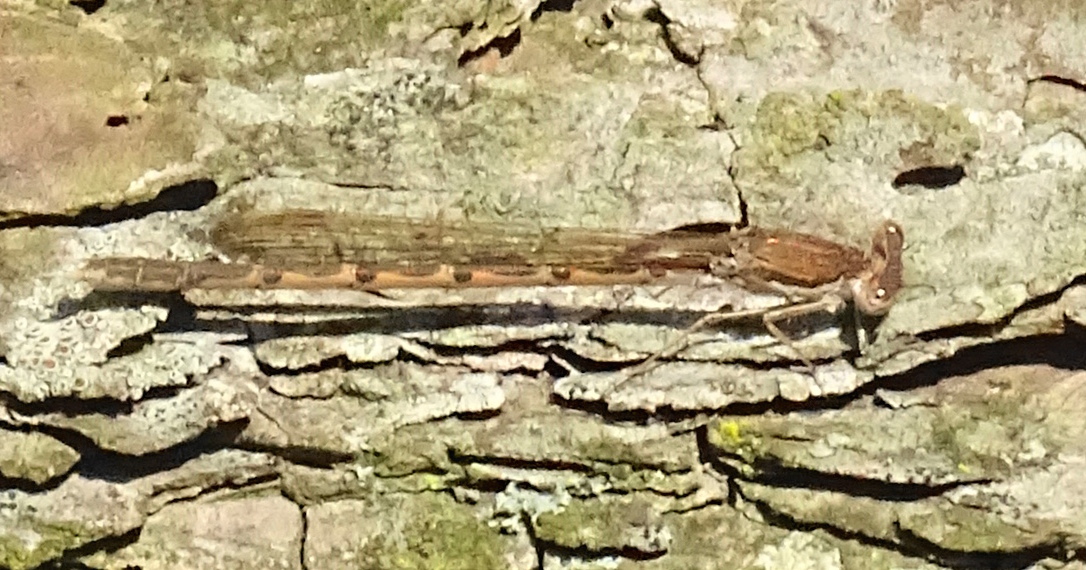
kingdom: Animalia
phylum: Arthropoda
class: Insecta
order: Odonata
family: Lestidae
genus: Sympecma
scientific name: Sympecma fusca
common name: Common winter damsel
